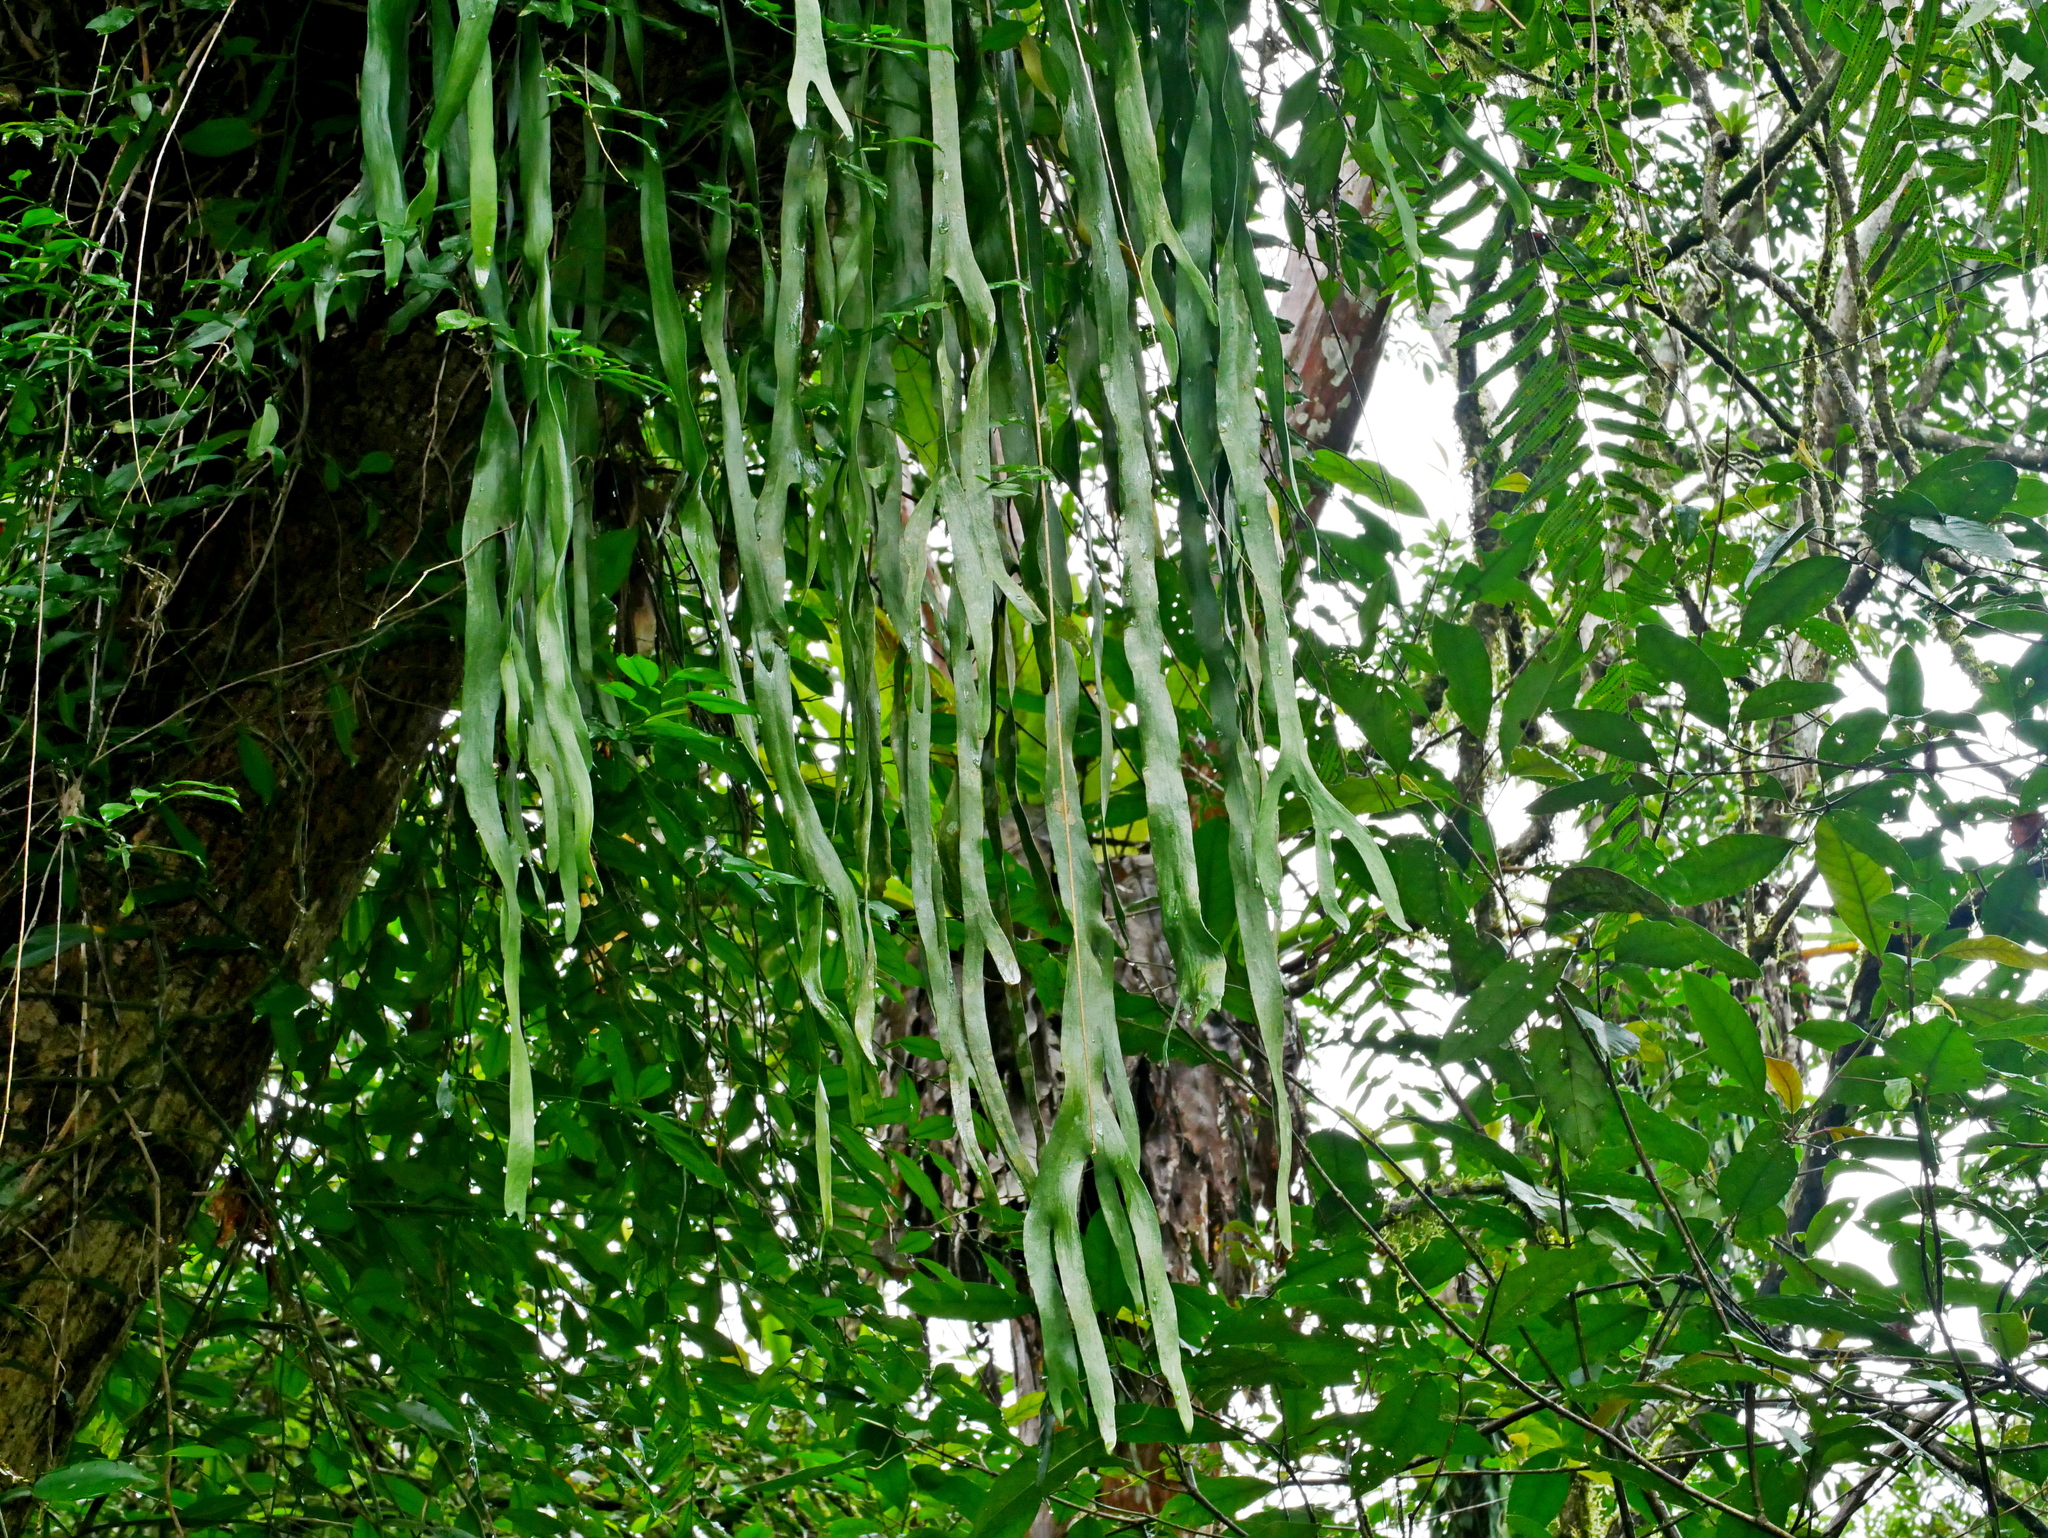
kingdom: Plantae
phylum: Tracheophyta
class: Polypodiopsida
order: Ophioglossales
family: Ophioglossaceae
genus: Ophioderma
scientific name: Ophioderma pendulum
